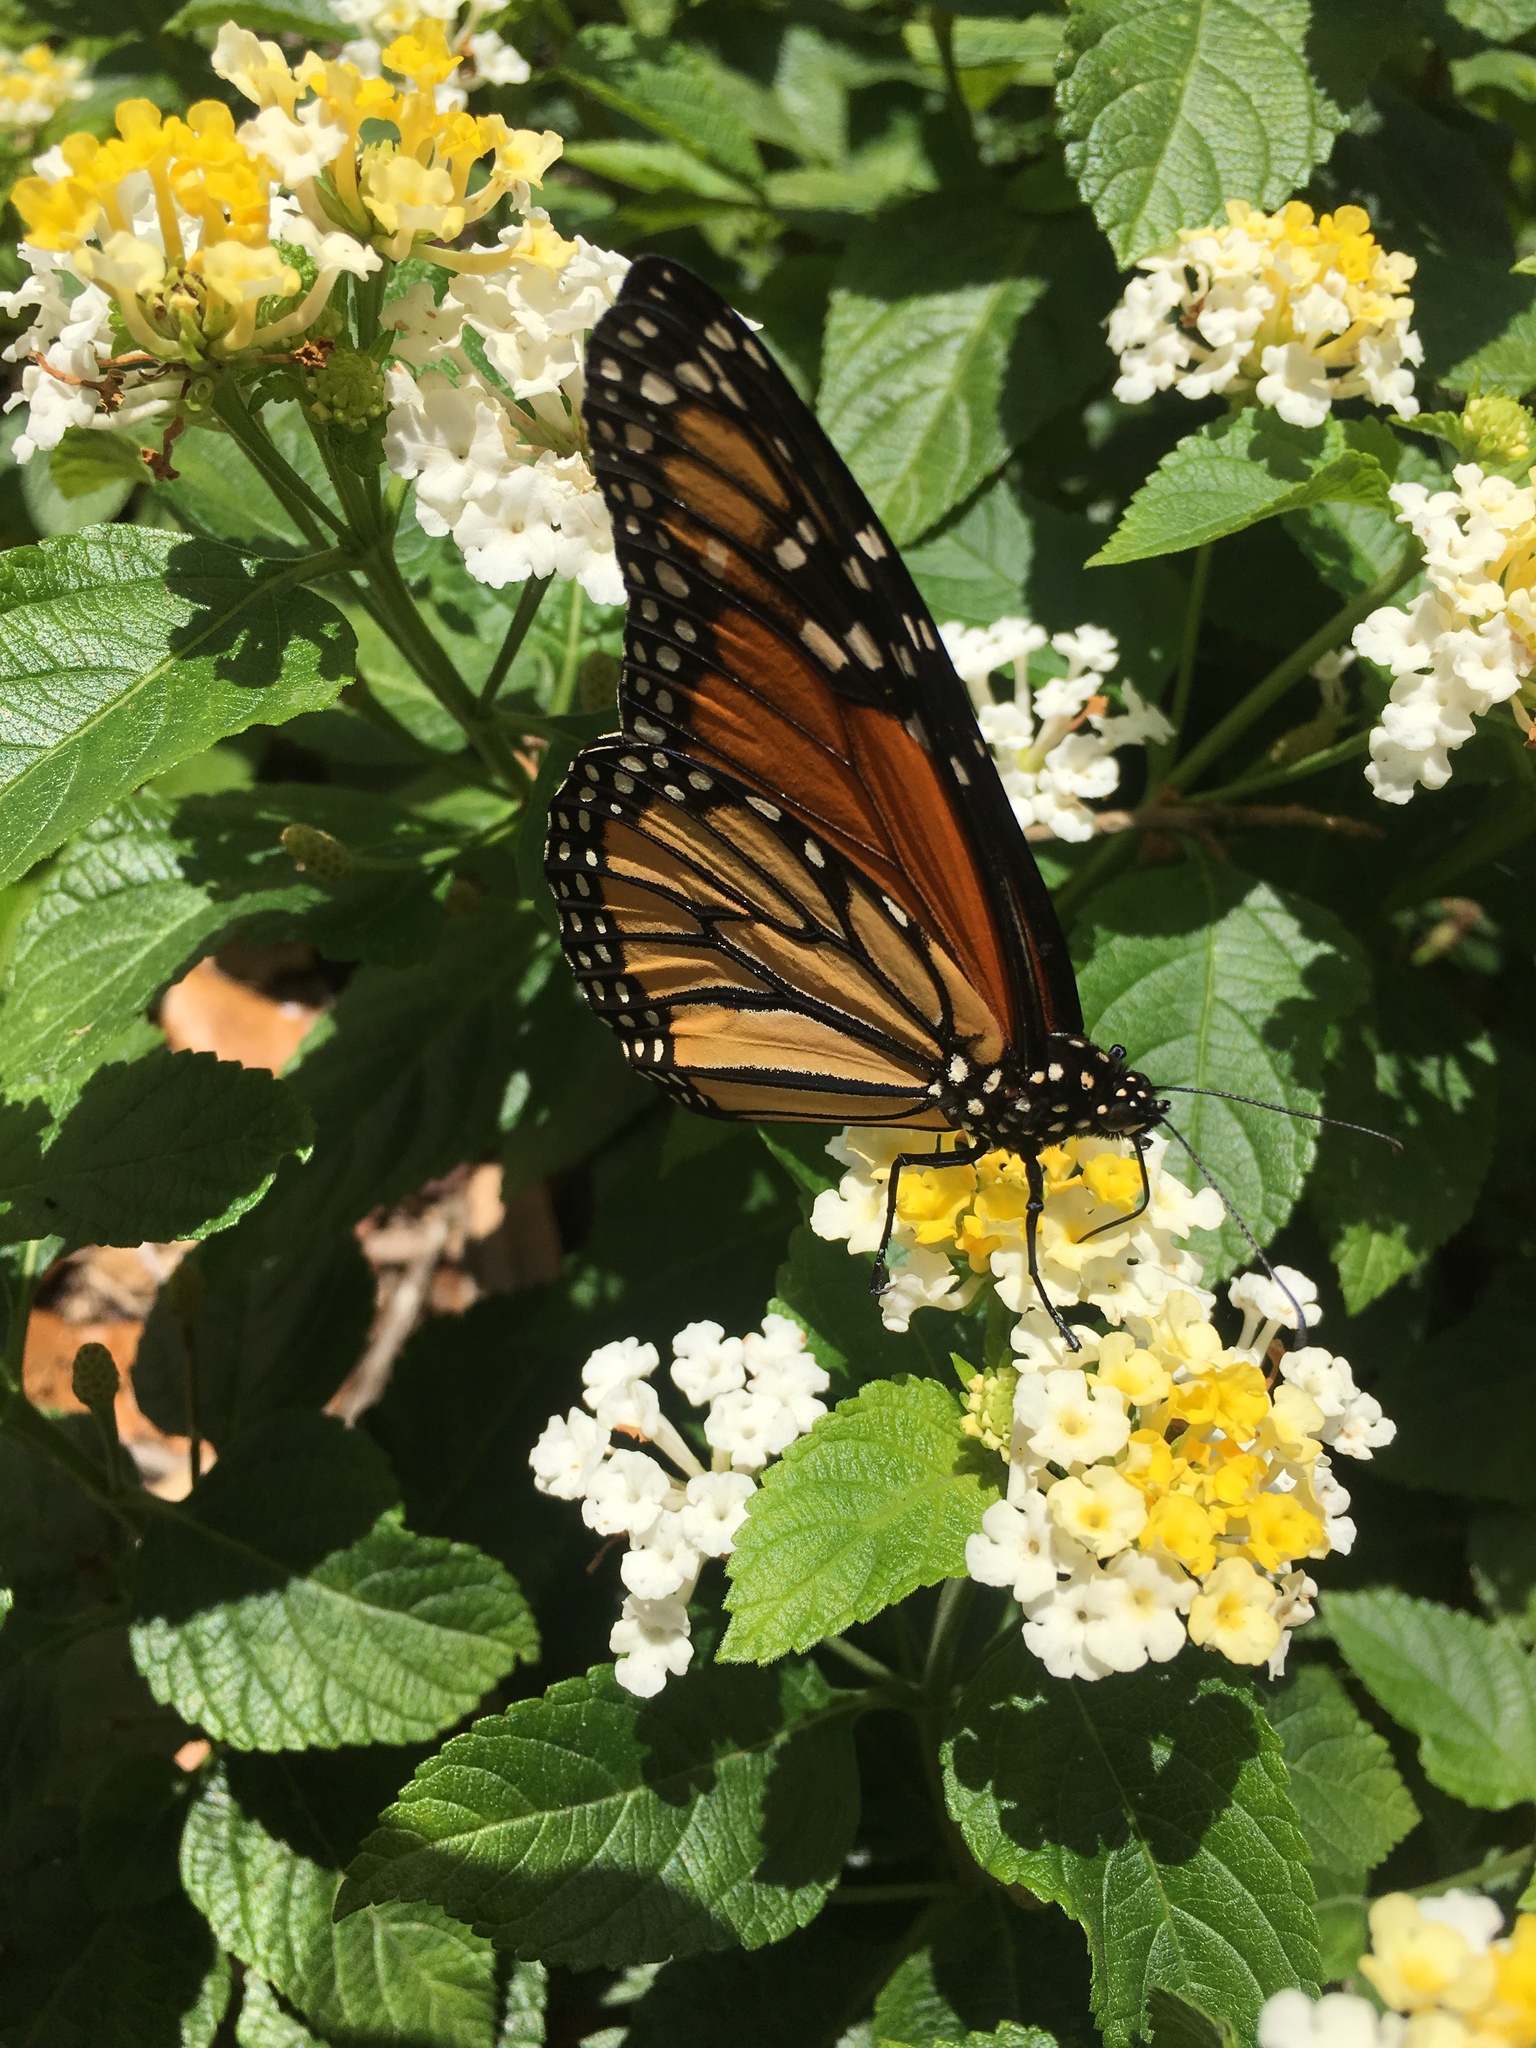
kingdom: Animalia
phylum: Arthropoda
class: Insecta
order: Lepidoptera
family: Nymphalidae
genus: Danaus
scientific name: Danaus plexippus
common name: Monarch
